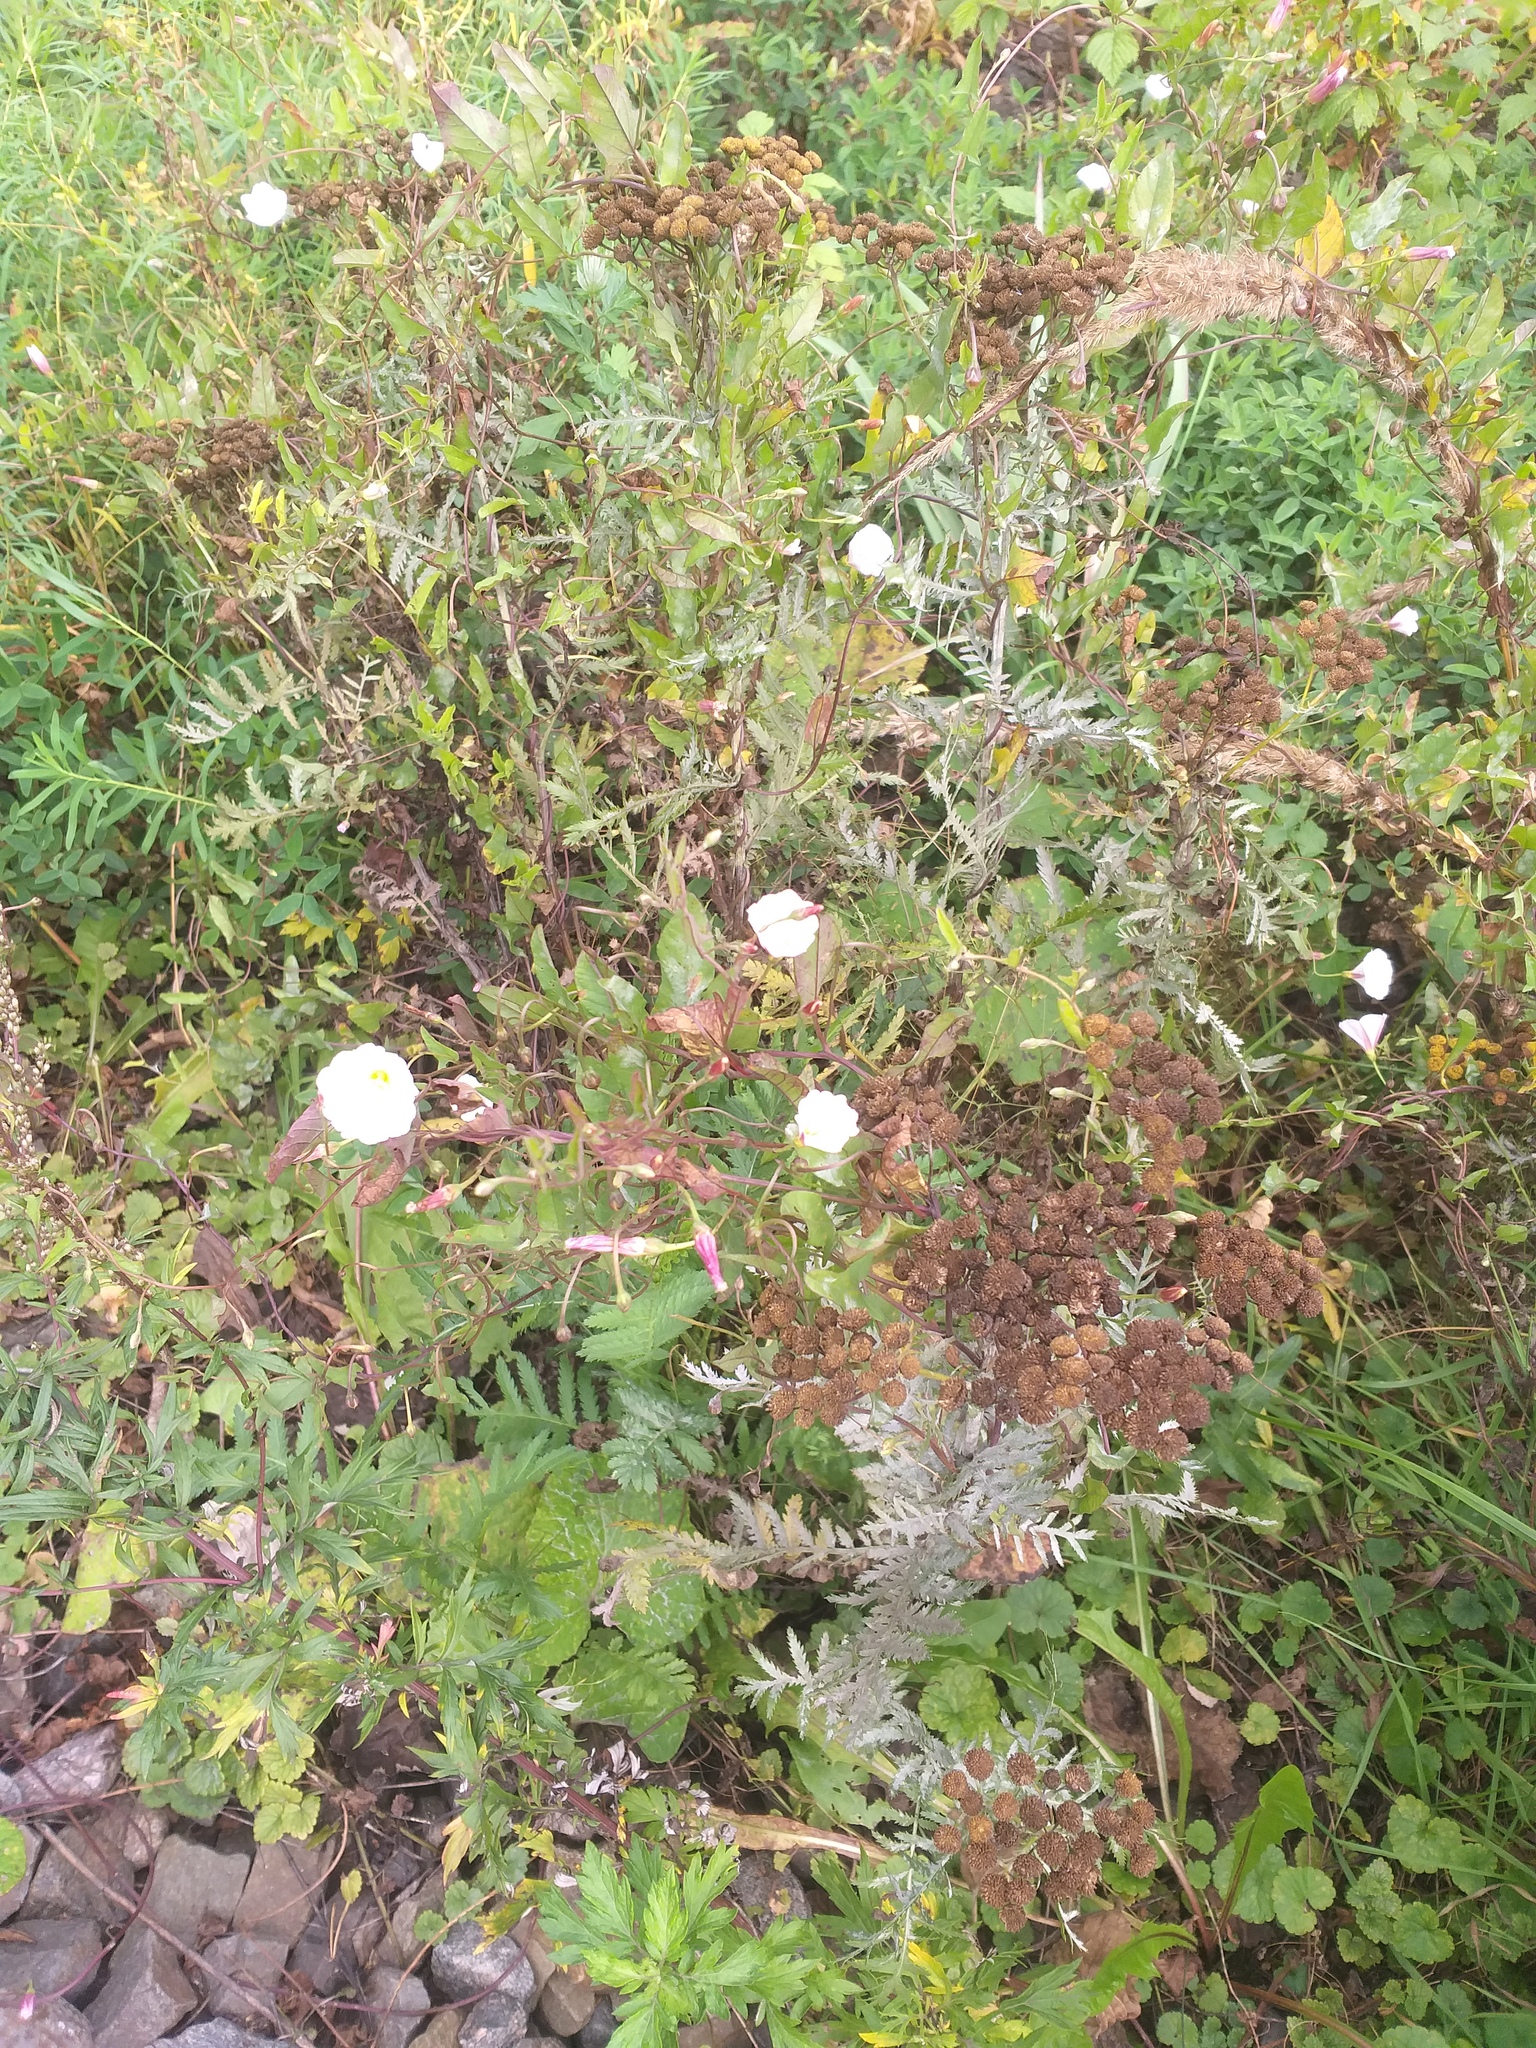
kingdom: Plantae
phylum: Tracheophyta
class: Magnoliopsida
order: Solanales
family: Convolvulaceae
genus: Convolvulus
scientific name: Convolvulus arvensis
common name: Field bindweed
